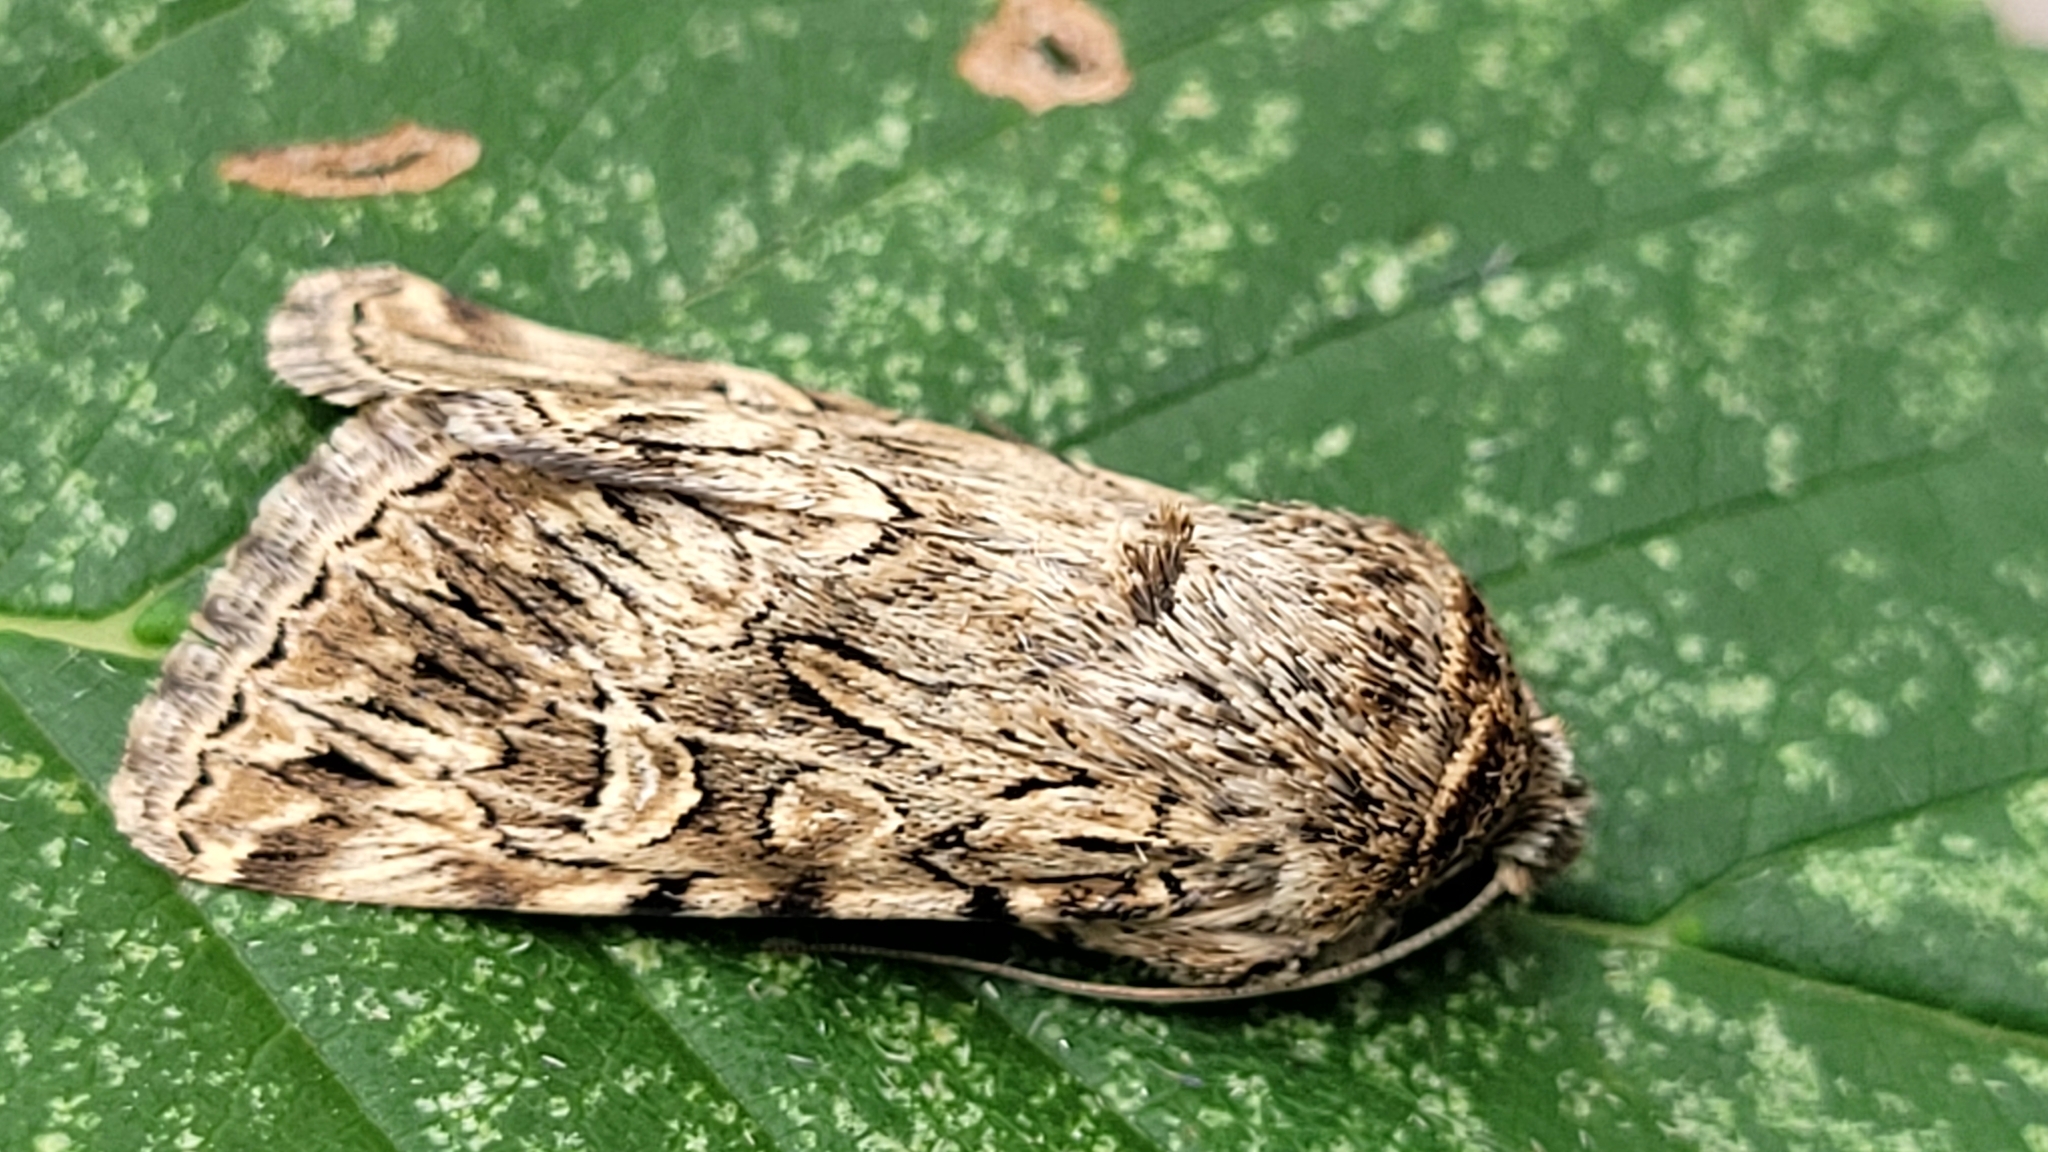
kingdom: Animalia
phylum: Arthropoda
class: Insecta
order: Lepidoptera
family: Noctuidae
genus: Sympistis
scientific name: Sympistis insanina
